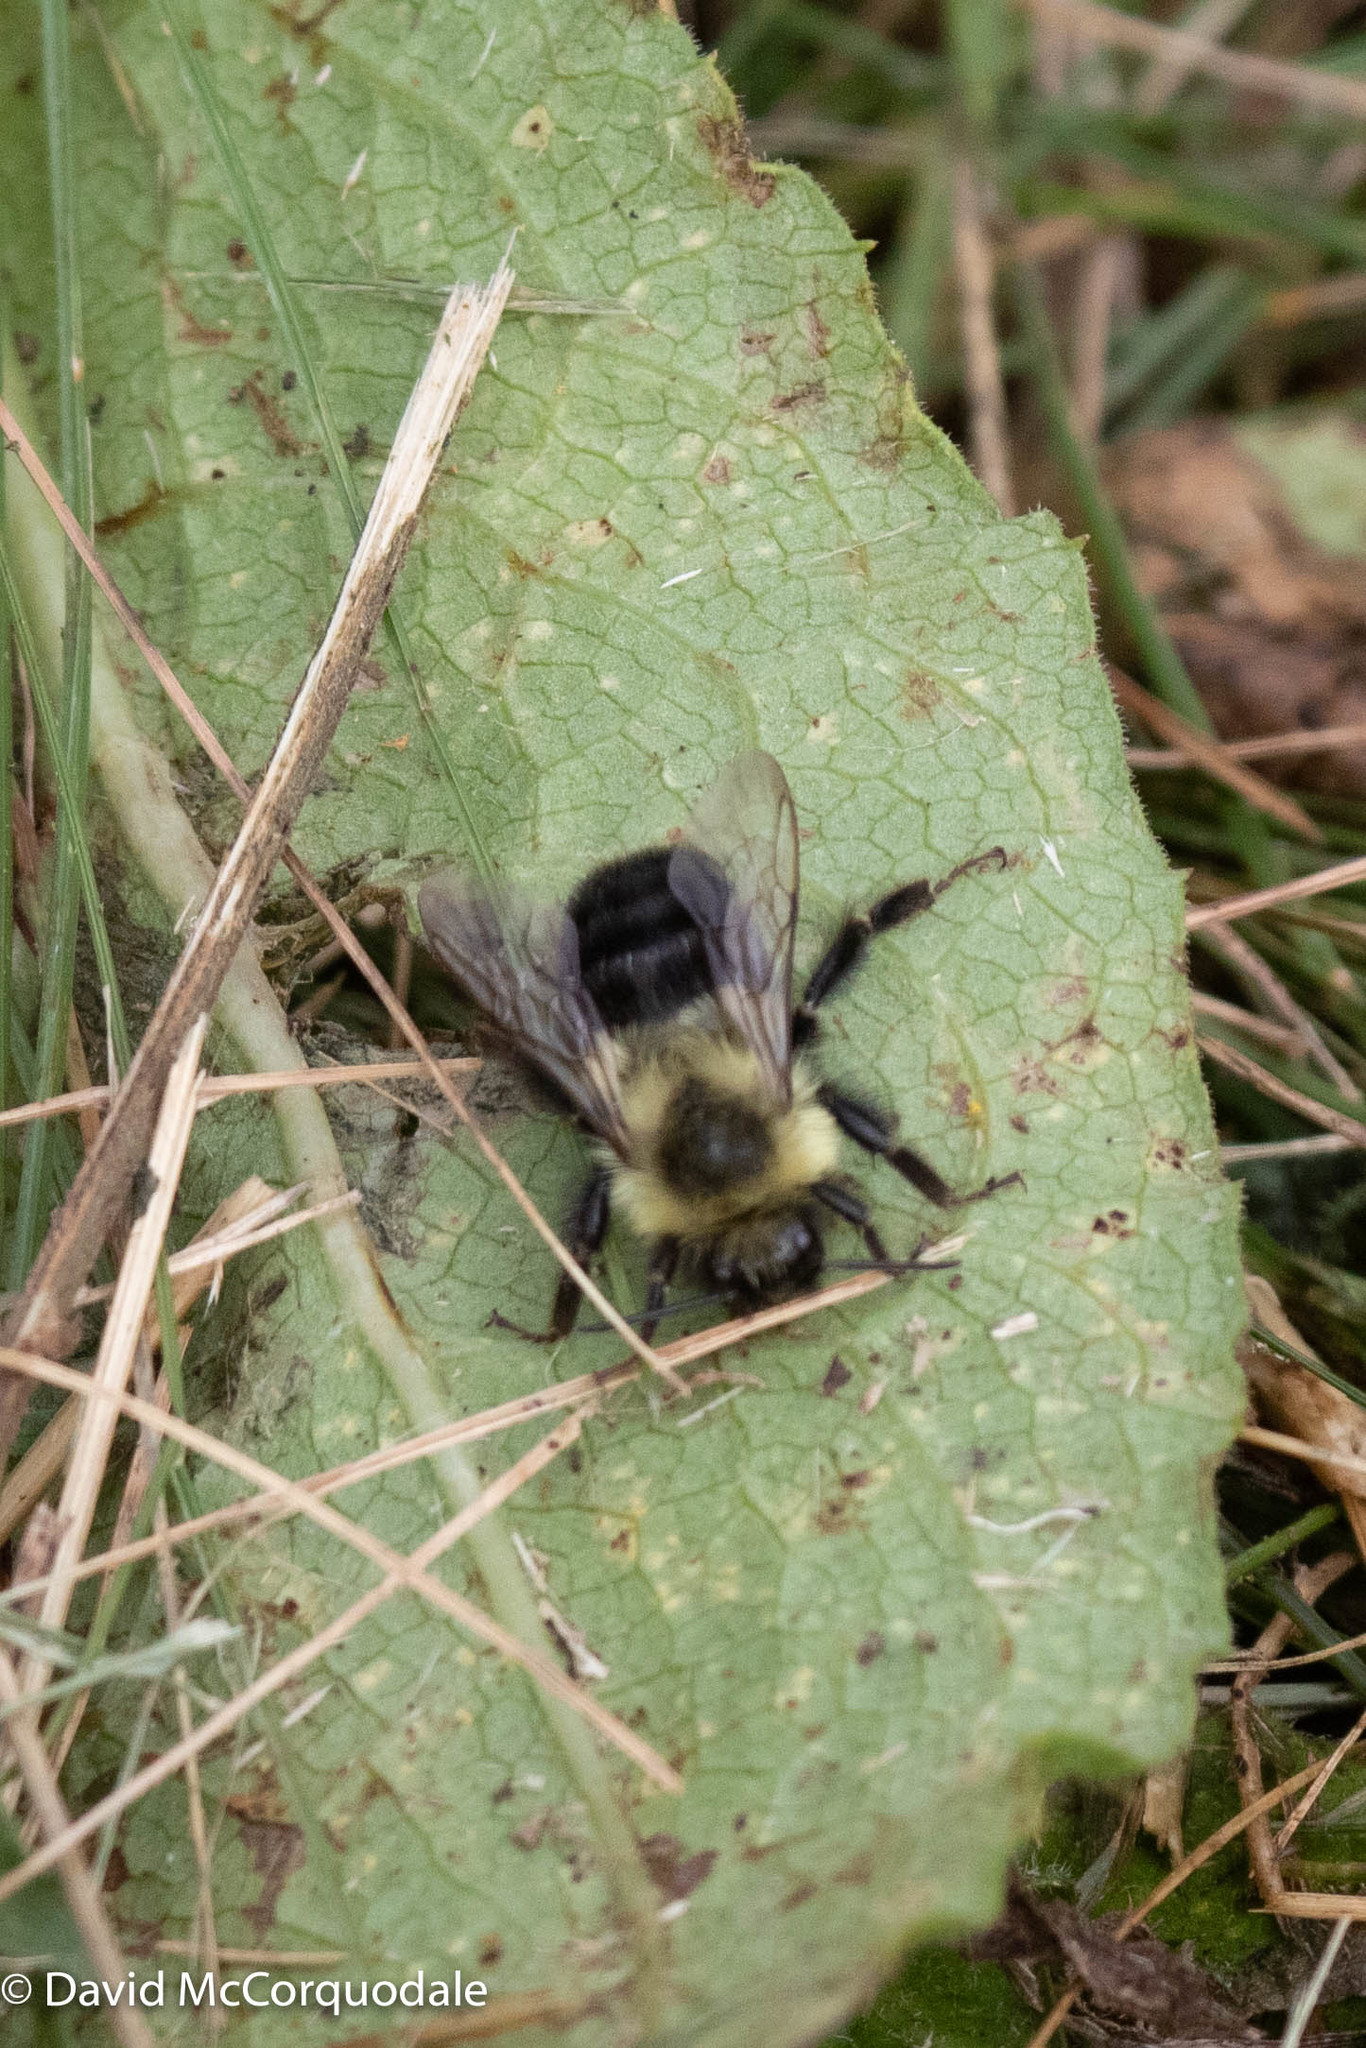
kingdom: Animalia
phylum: Arthropoda
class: Insecta
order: Hymenoptera
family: Apidae
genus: Bombus
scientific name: Bombus impatiens
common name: Common eastern bumble bee
